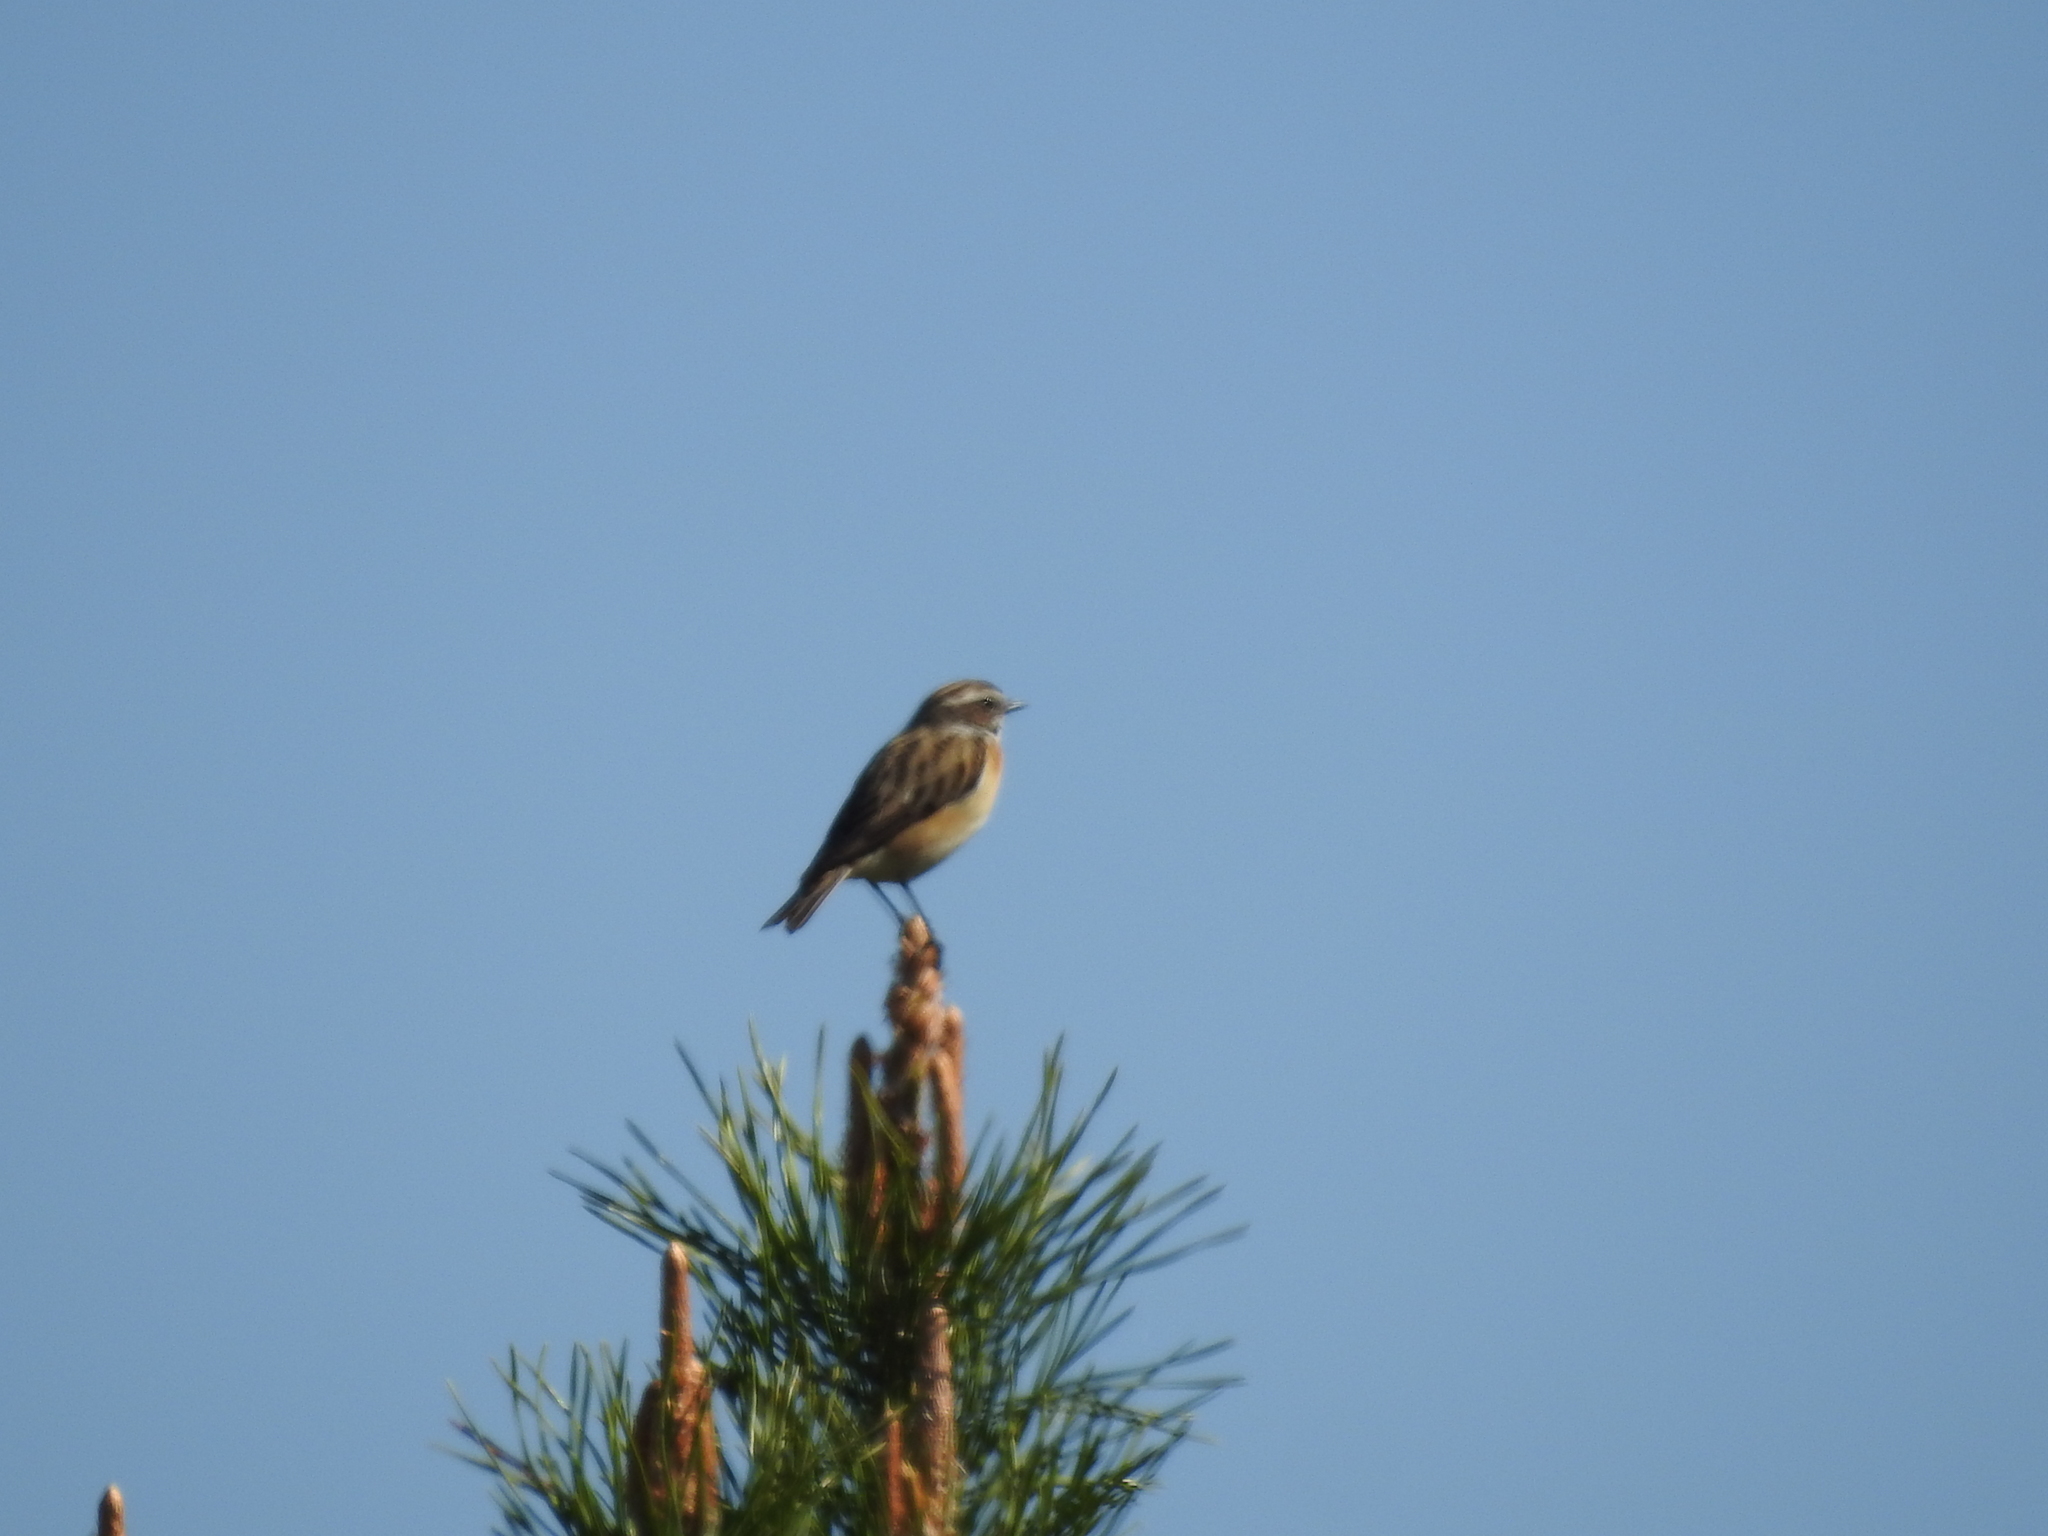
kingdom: Animalia
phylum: Chordata
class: Aves
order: Passeriformes
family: Muscicapidae
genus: Saxicola
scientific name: Saxicola rubetra
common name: Whinchat
